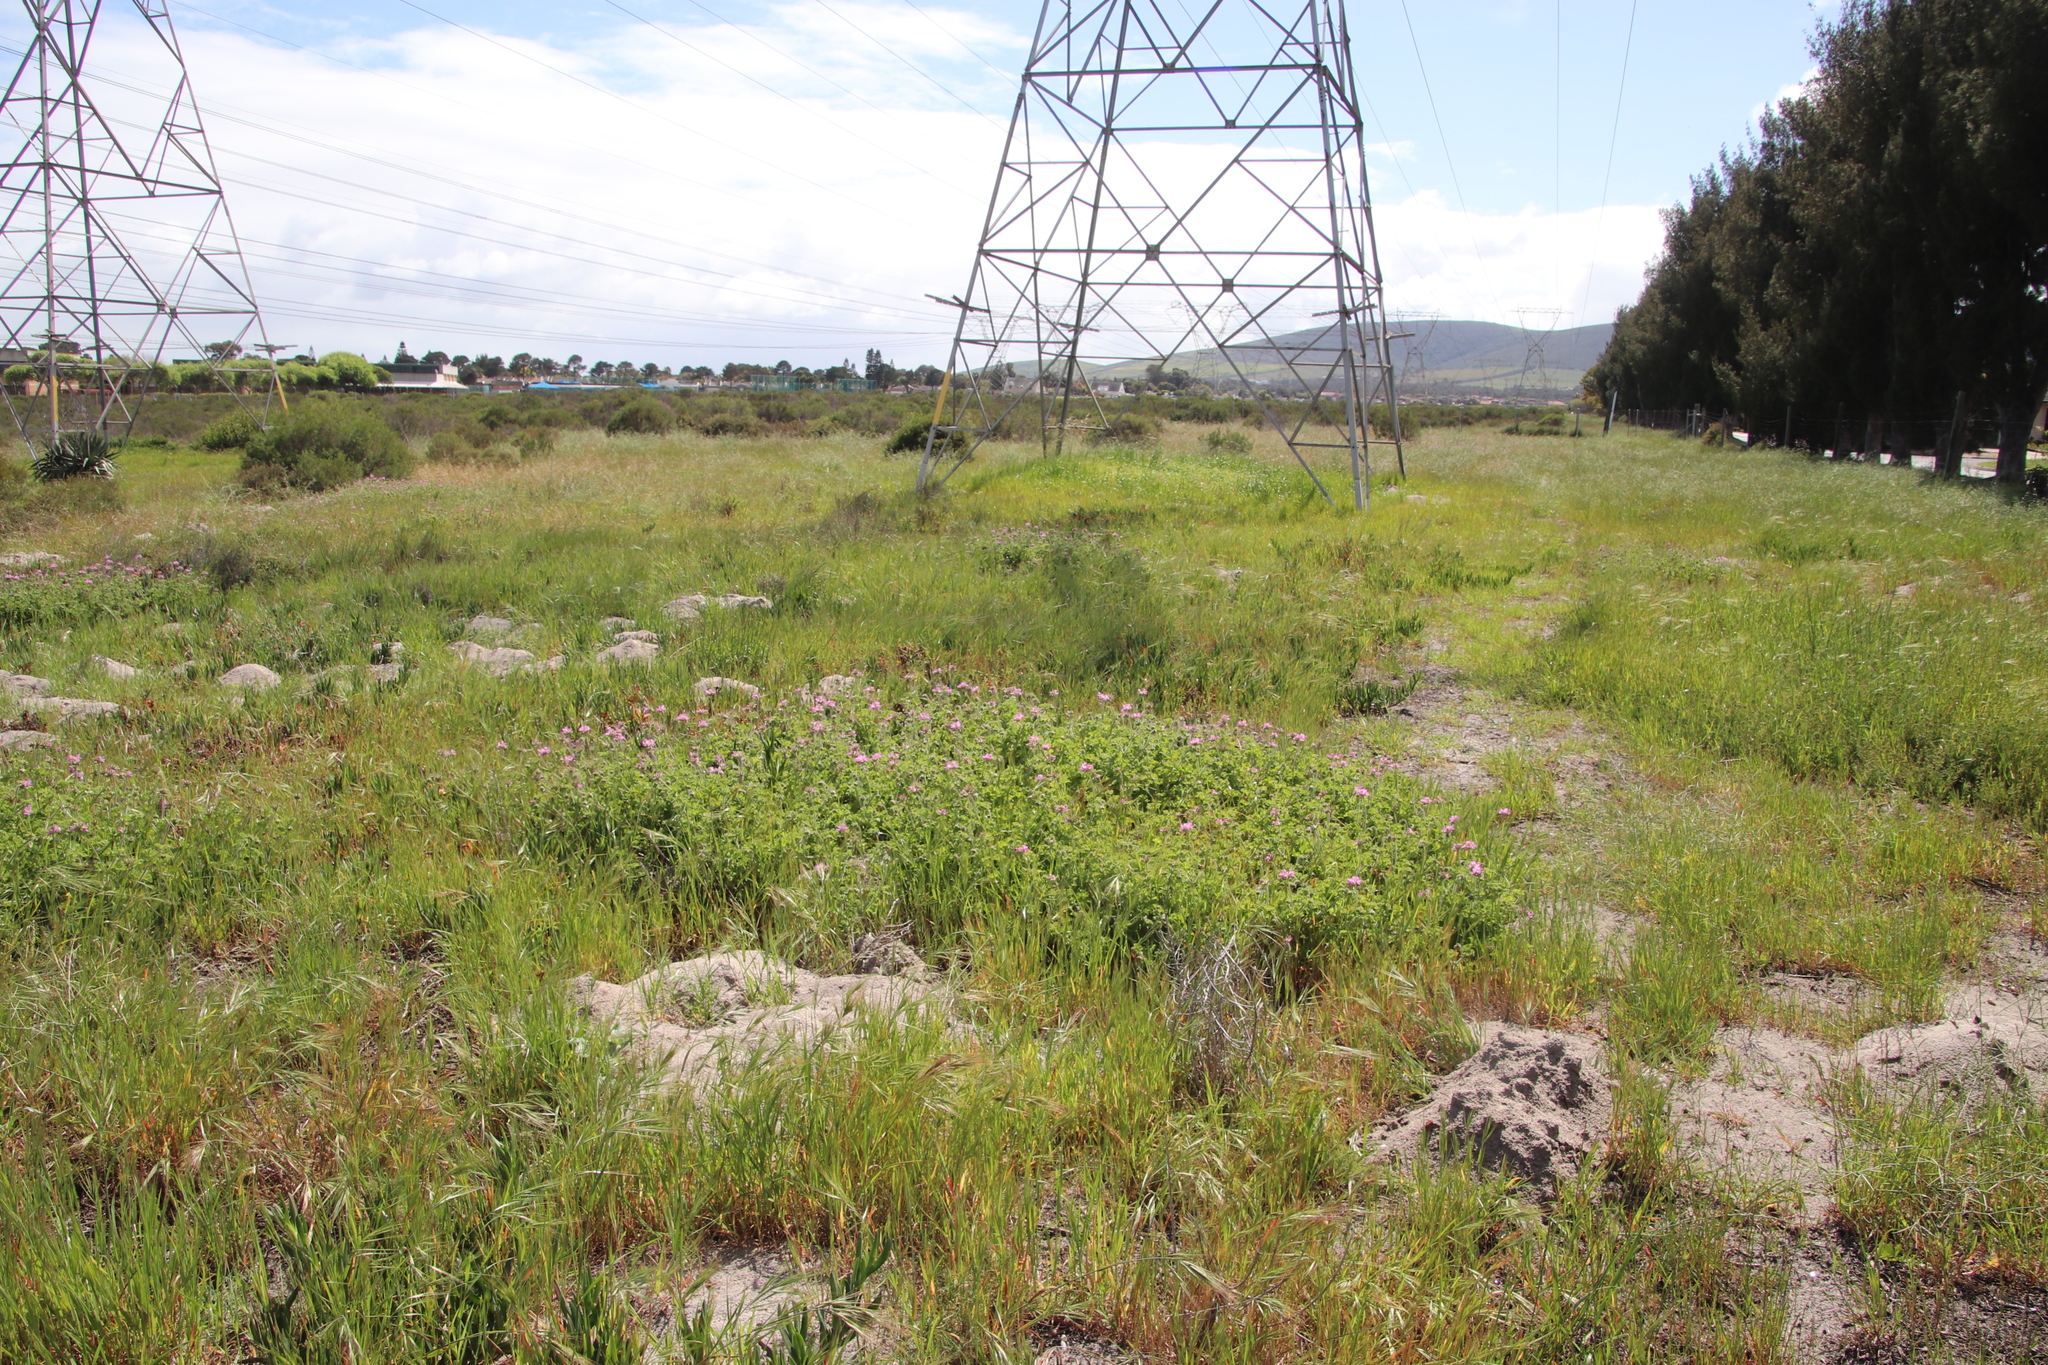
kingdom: Plantae
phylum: Tracheophyta
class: Magnoliopsida
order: Geraniales
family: Geraniaceae
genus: Pelargonium
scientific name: Pelargonium capitatum
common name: Rose scented geranium
